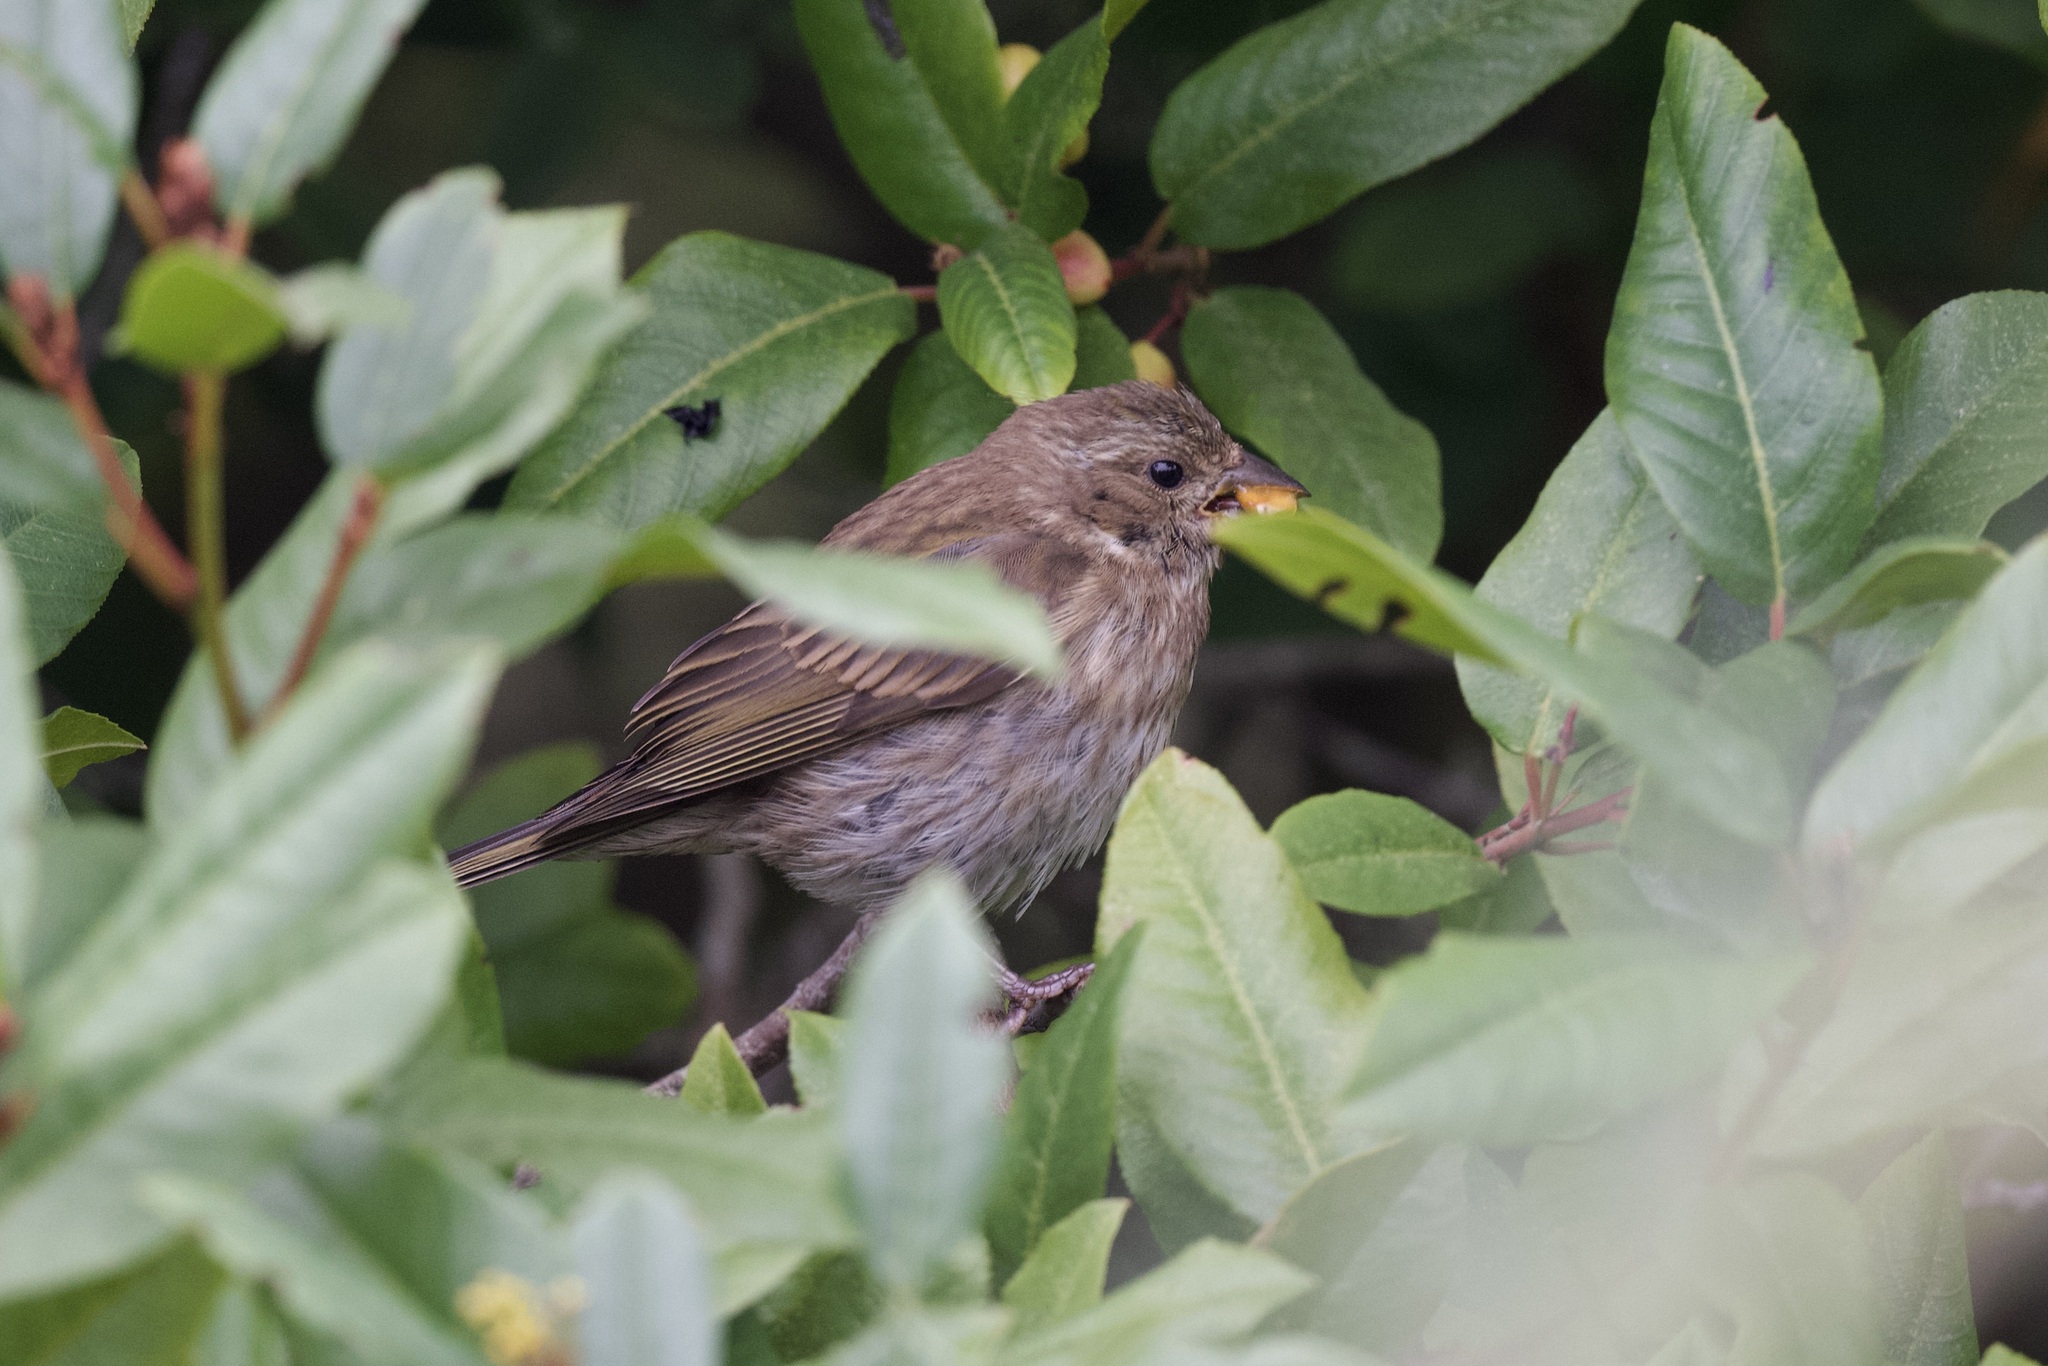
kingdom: Animalia
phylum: Chordata
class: Aves
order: Passeriformes
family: Fringillidae
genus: Haemorhous
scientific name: Haemorhous purpureus
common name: Purple finch
